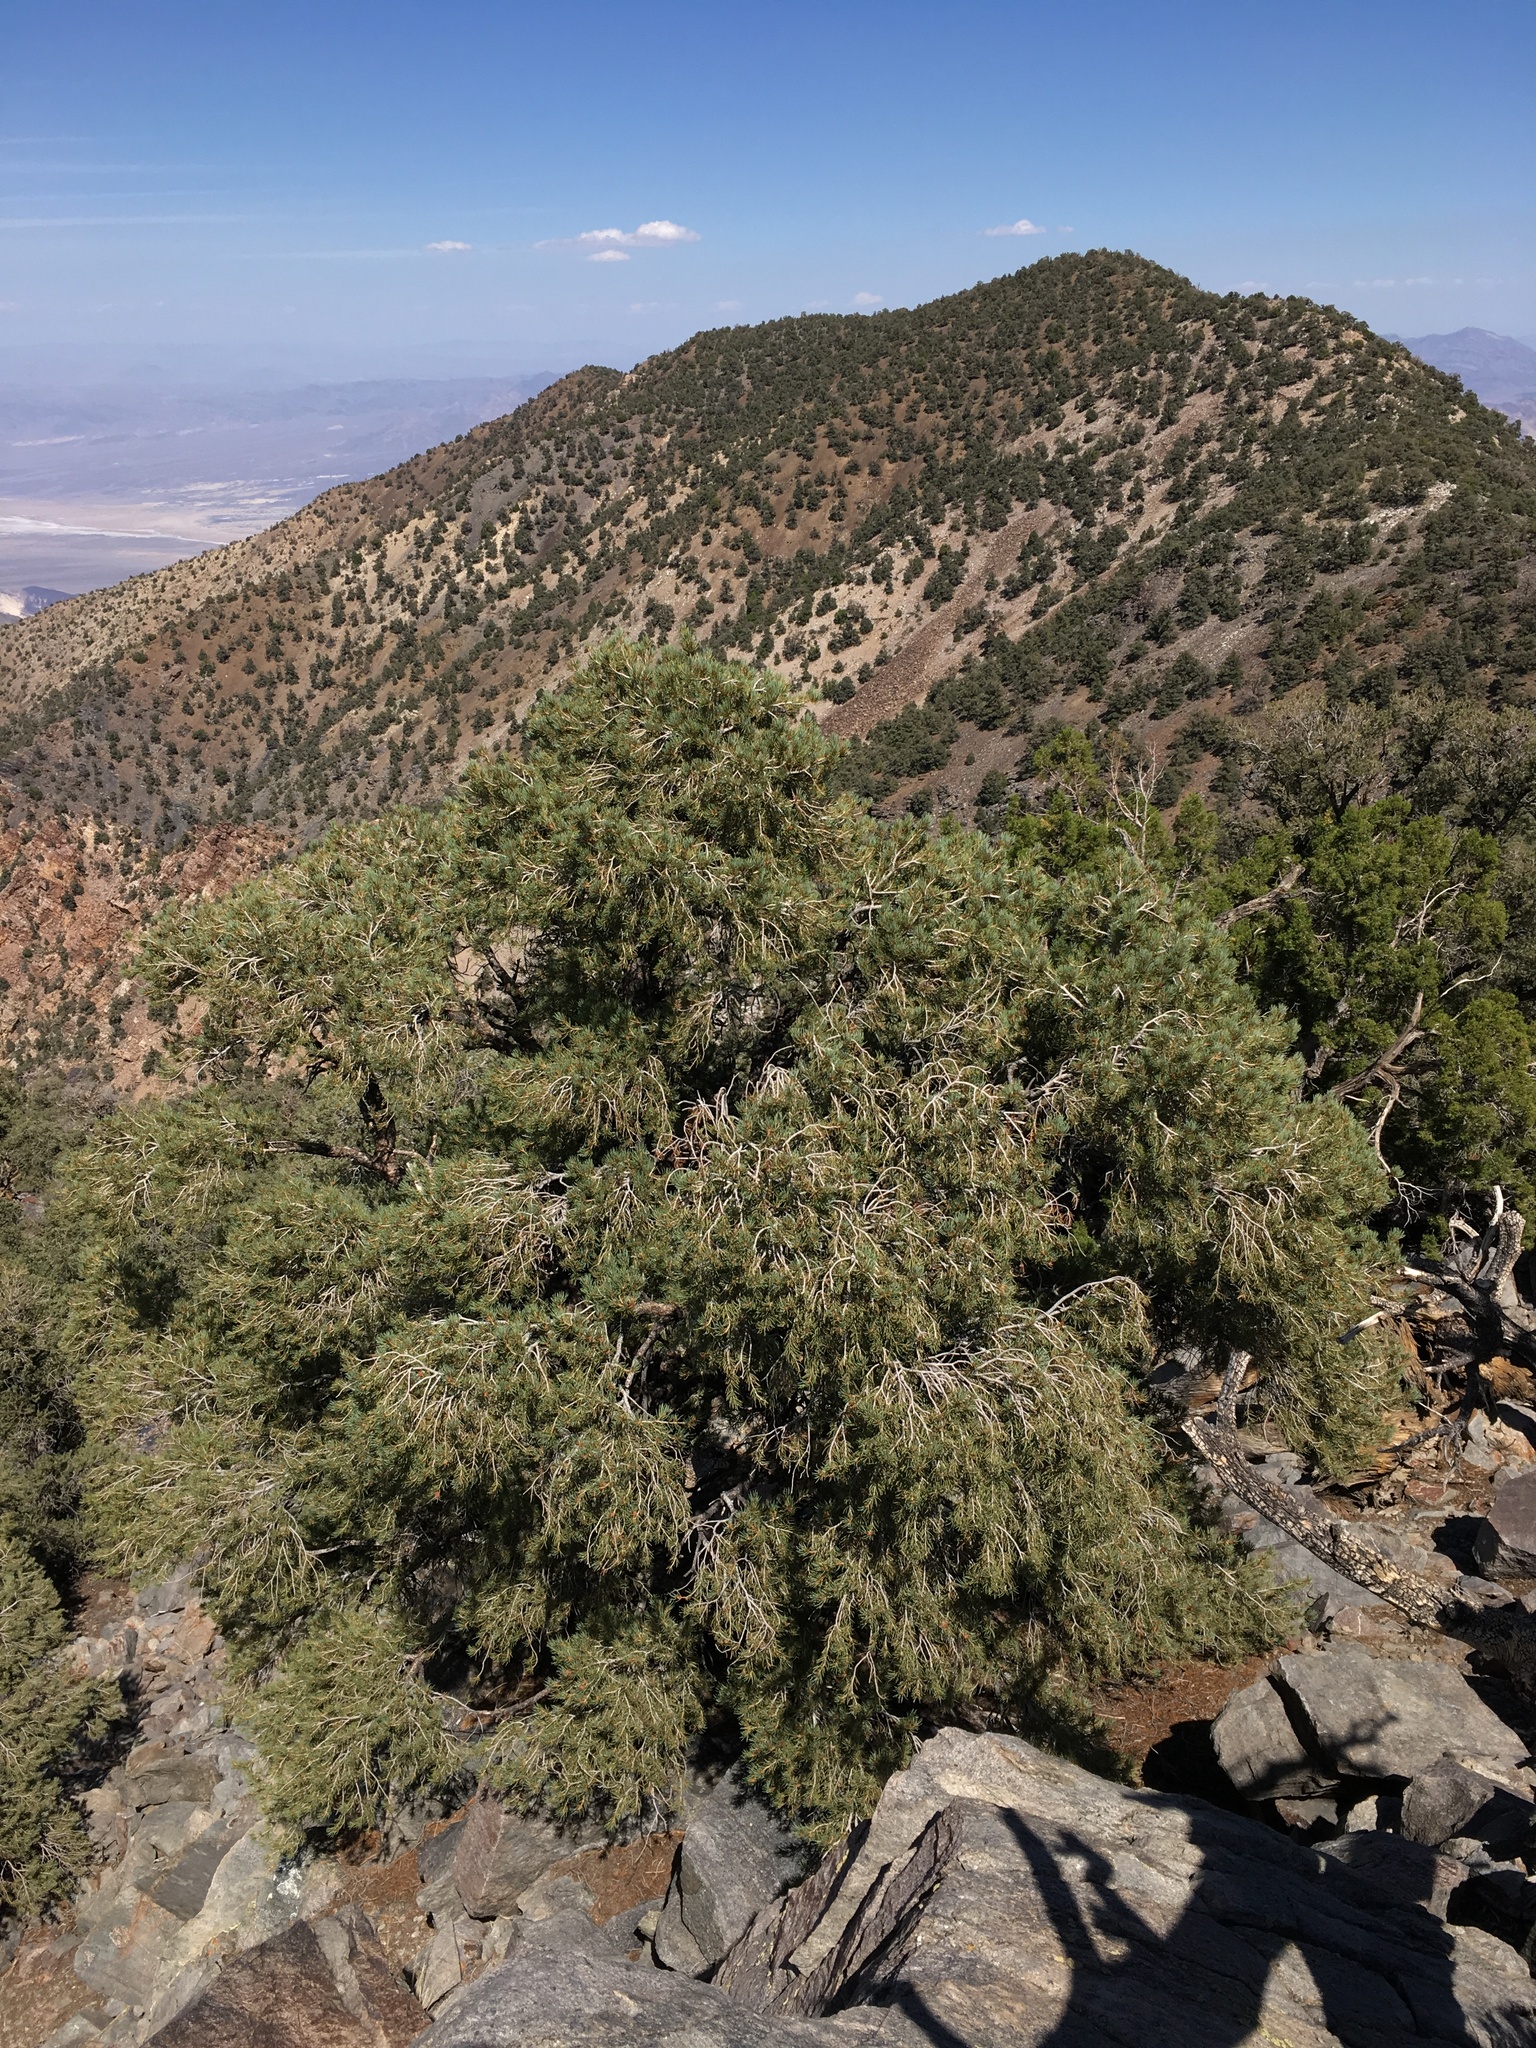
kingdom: Plantae
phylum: Tracheophyta
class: Pinopsida
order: Pinales
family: Pinaceae
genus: Pinus
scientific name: Pinus monophylla
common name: One-leaved nut pine
